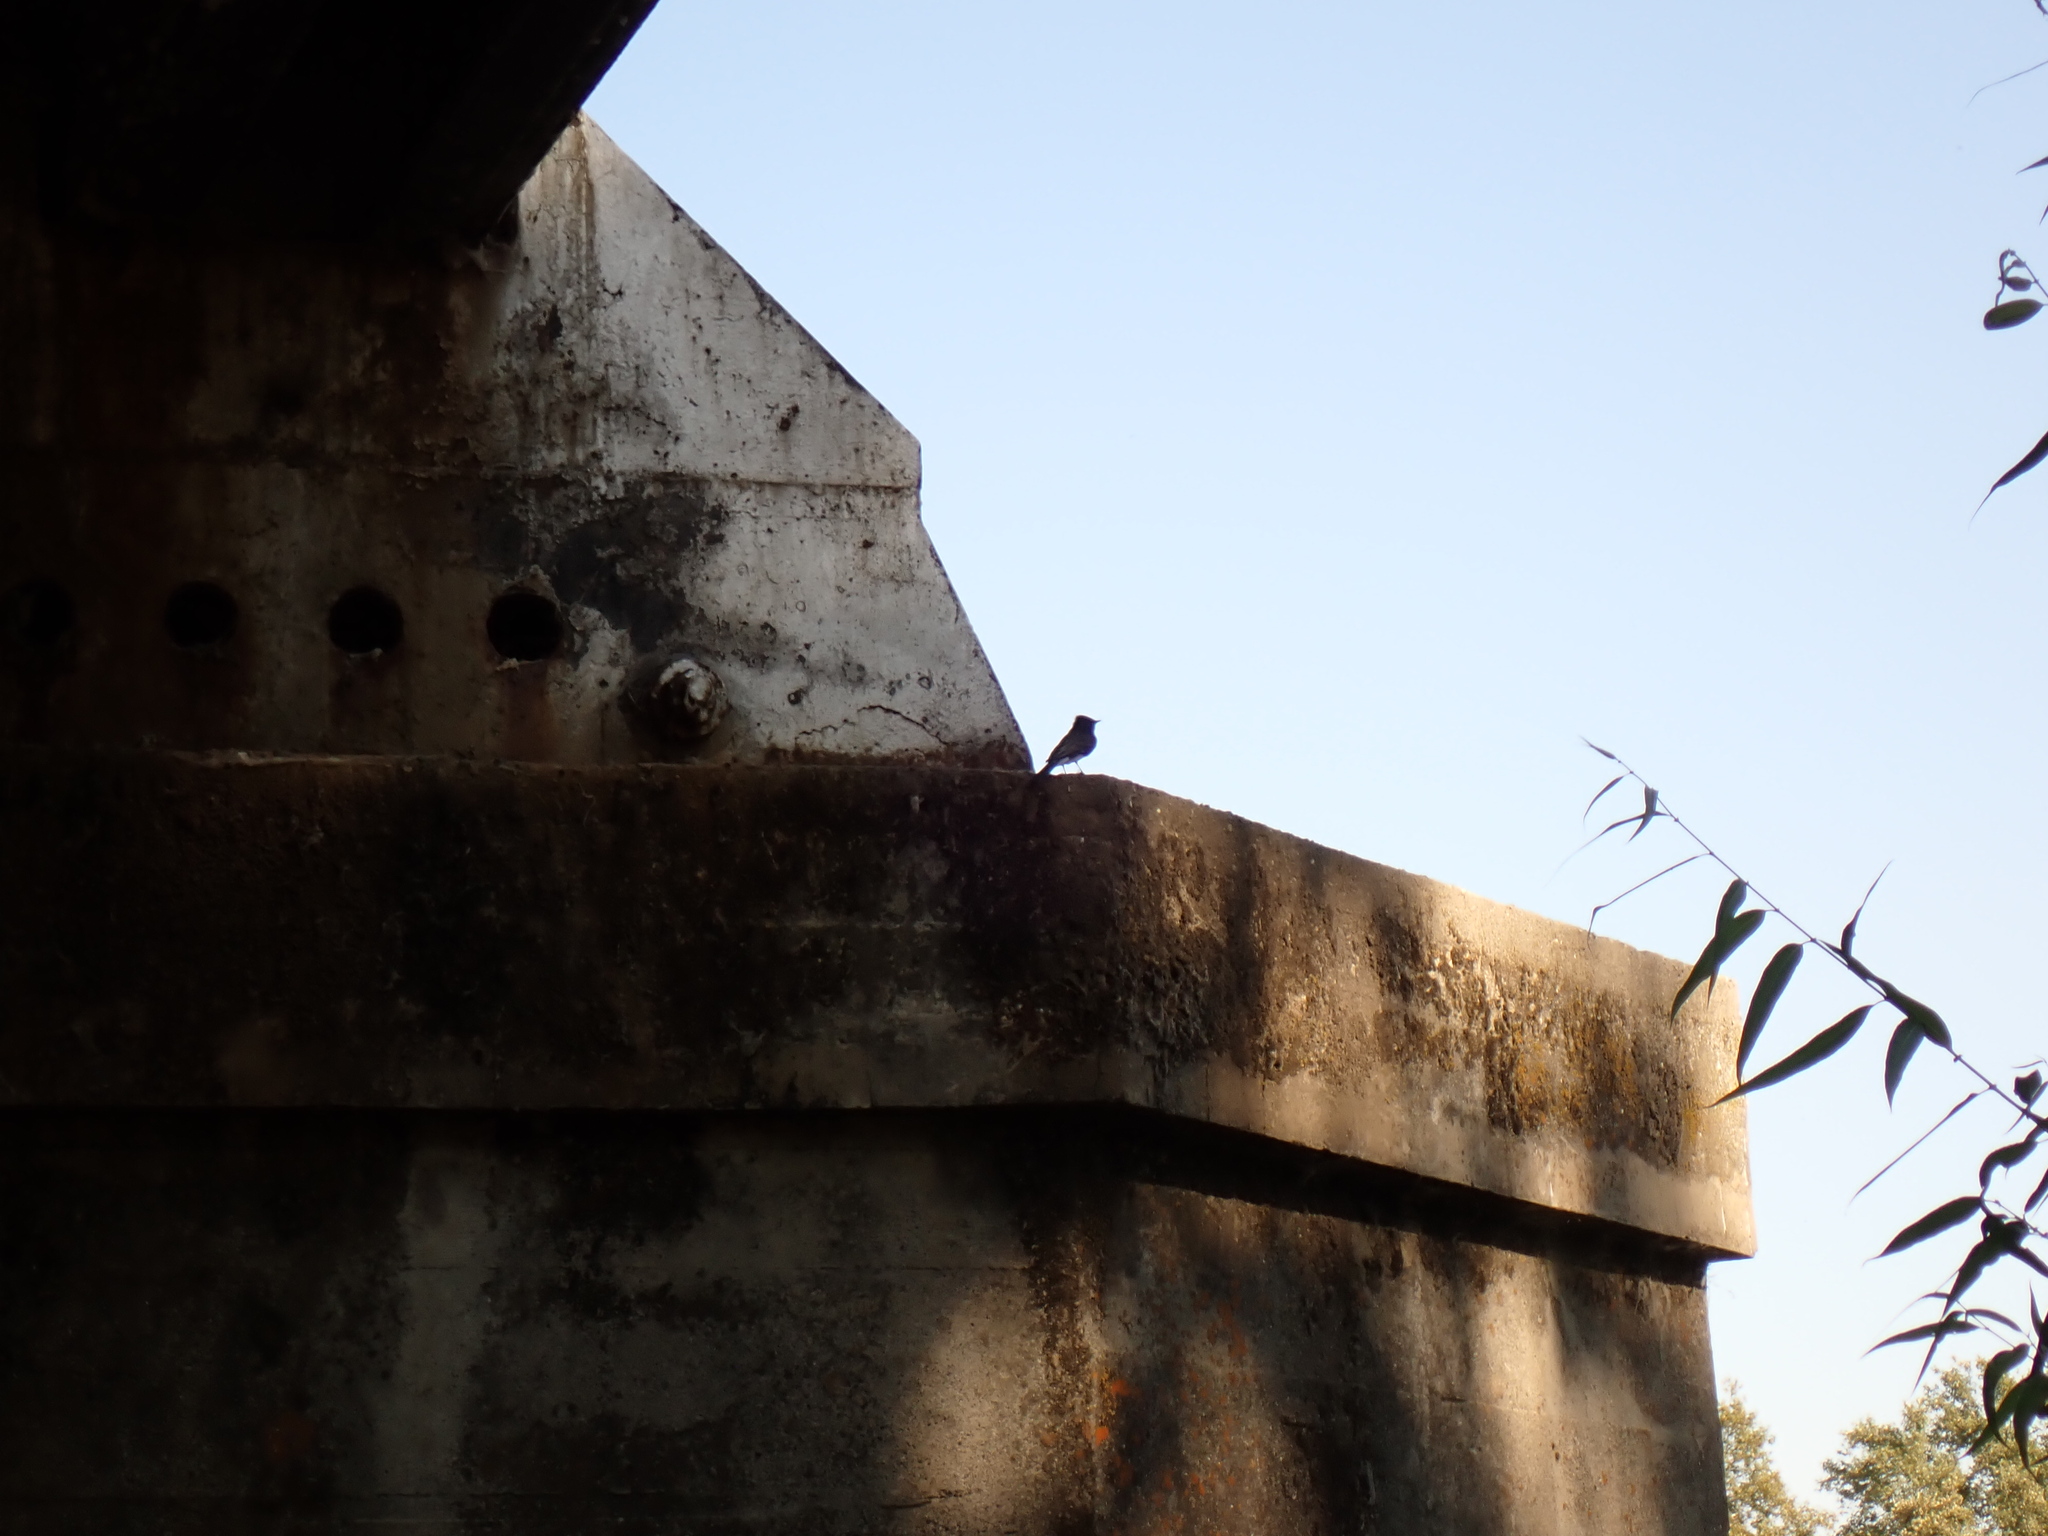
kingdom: Animalia
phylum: Chordata
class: Aves
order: Passeriformes
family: Tyrannidae
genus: Sayornis
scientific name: Sayornis nigricans
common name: Black phoebe
